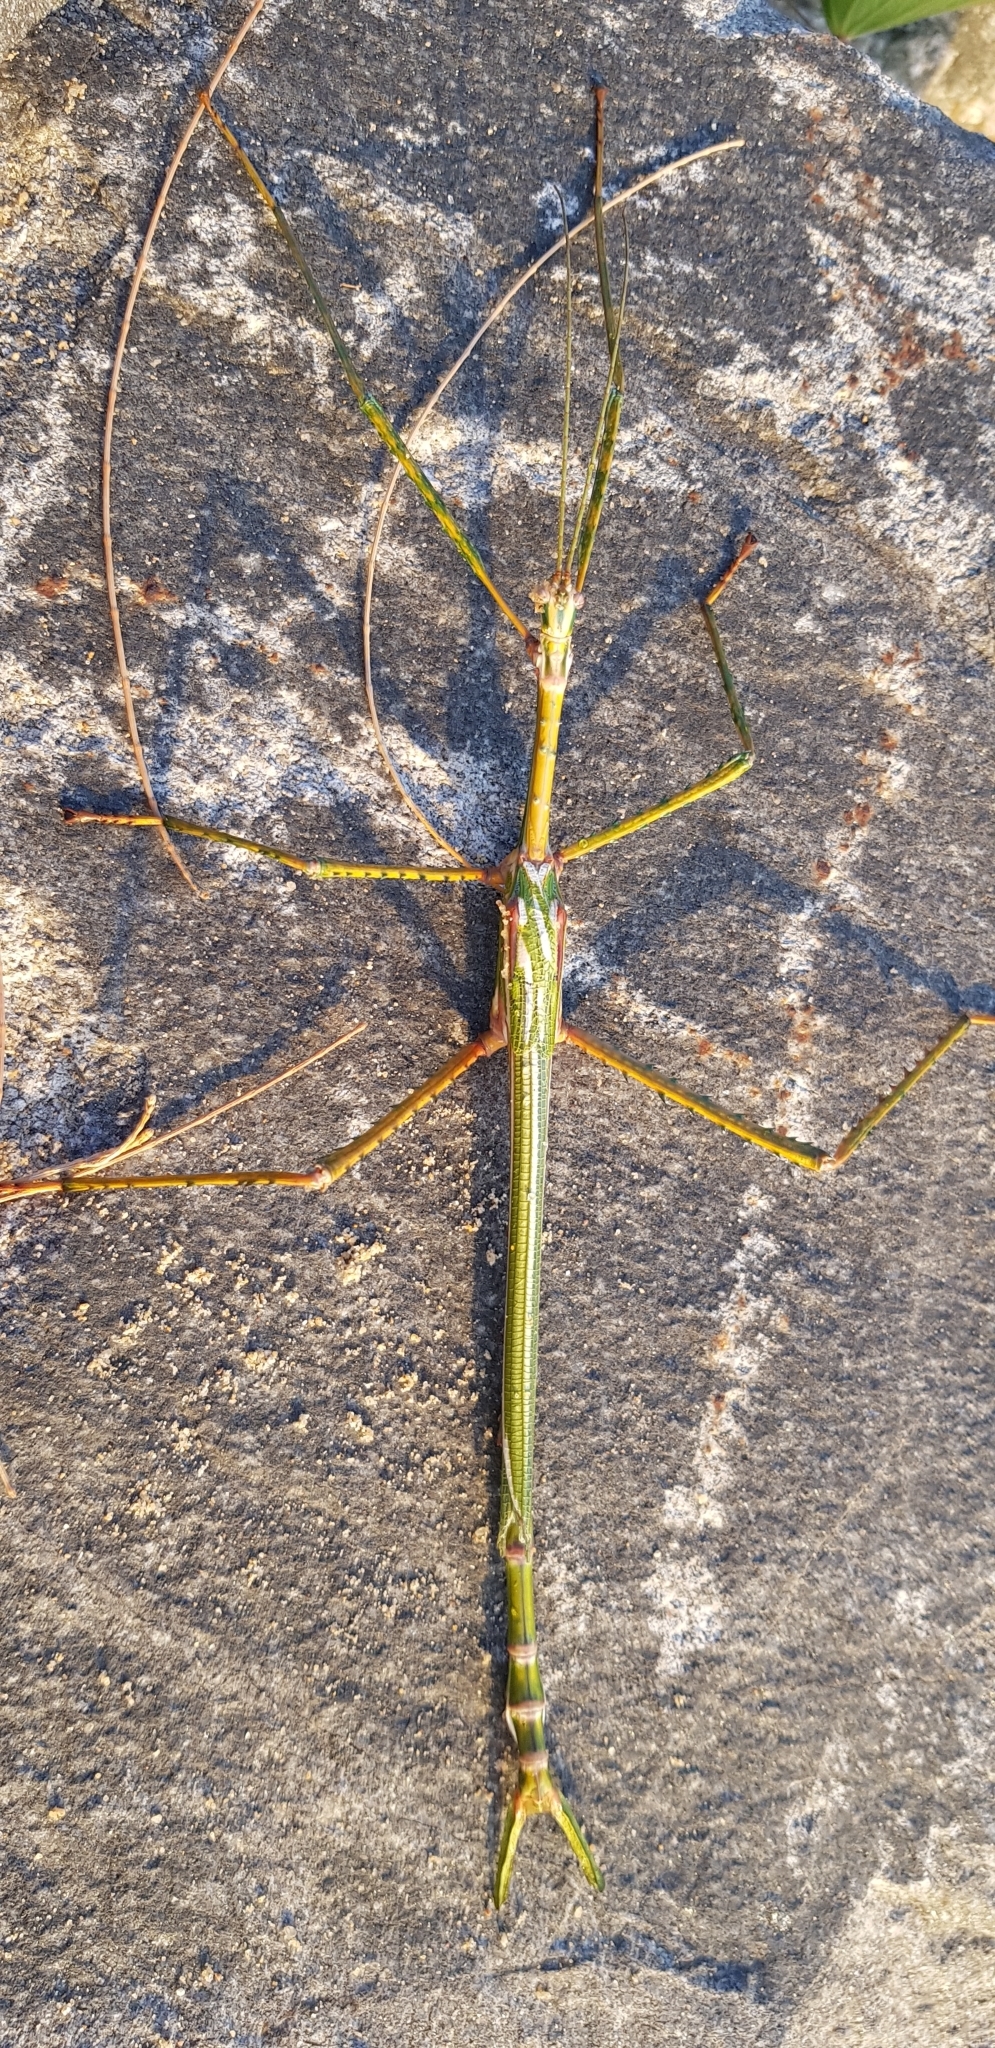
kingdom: Animalia
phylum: Arthropoda
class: Insecta
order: Phasmida
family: Phasmatidae
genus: Eurycnema
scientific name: Eurycnema goliath
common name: Goliath stick insect
